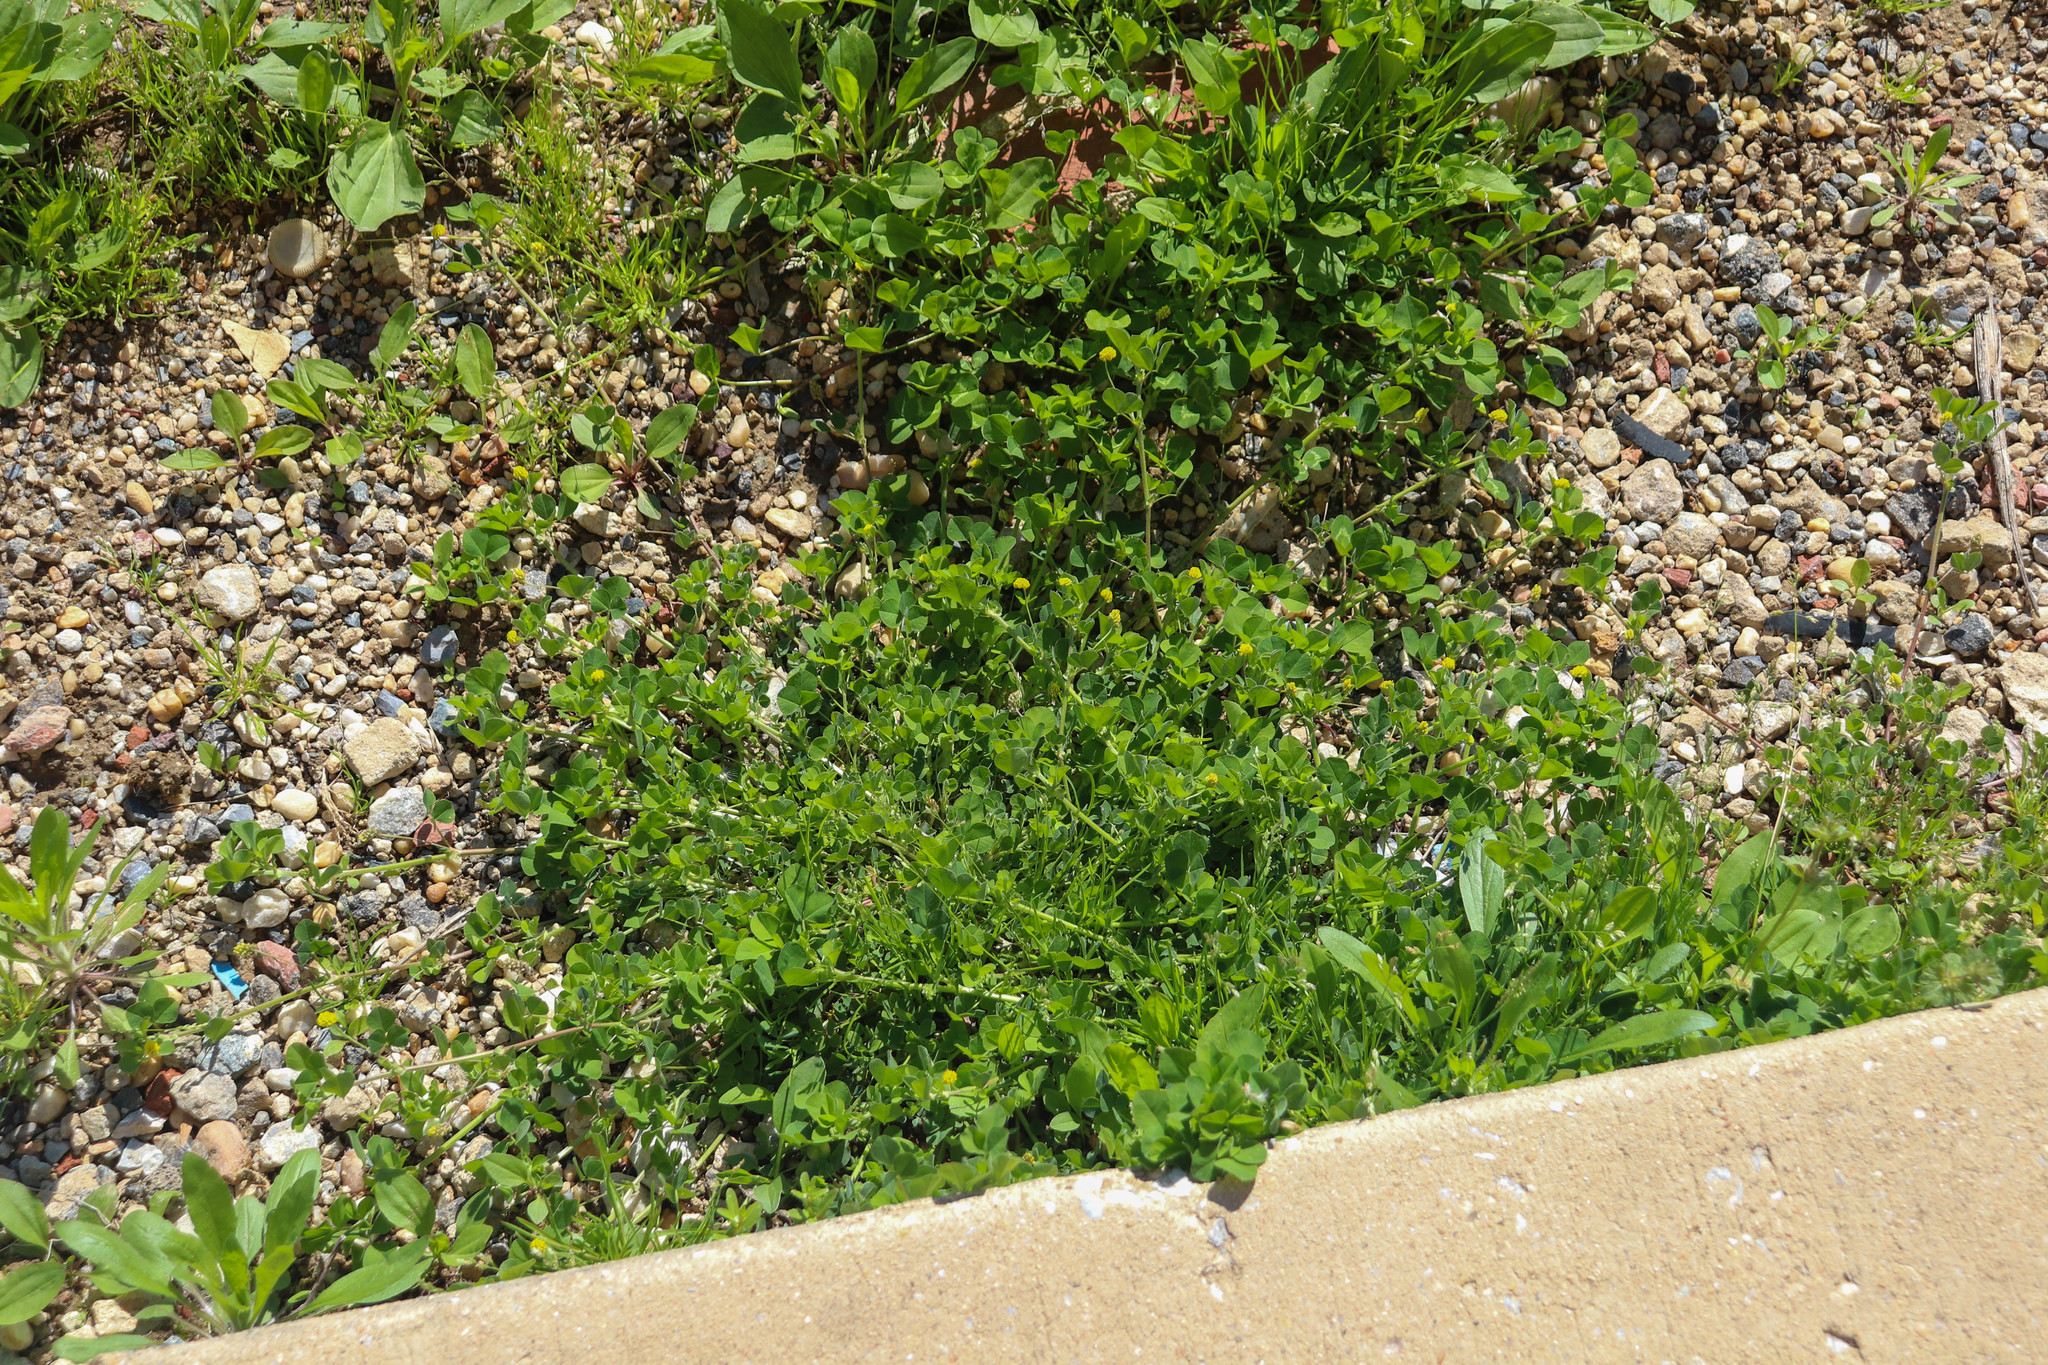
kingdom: Plantae
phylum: Tracheophyta
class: Magnoliopsida
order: Fabales
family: Fabaceae
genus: Medicago
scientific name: Medicago lupulina
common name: Black medick
